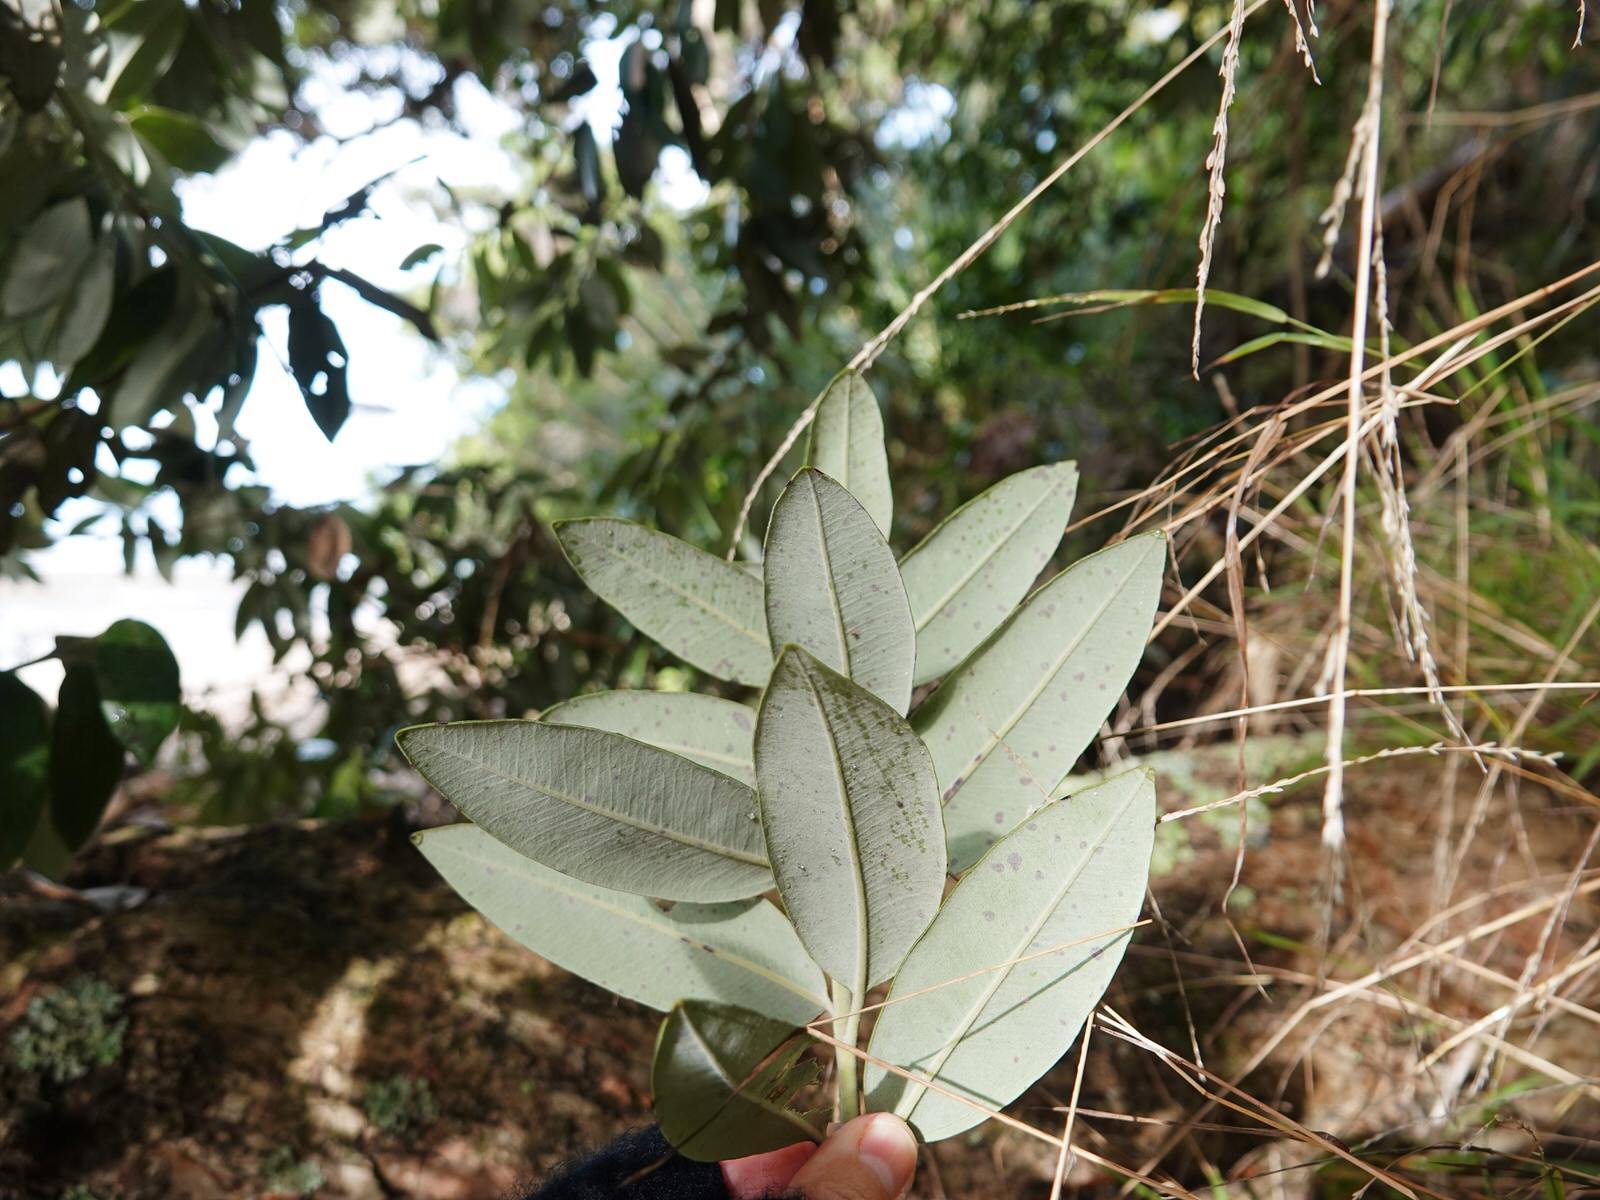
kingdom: Plantae
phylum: Tracheophyta
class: Magnoliopsida
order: Myrtales
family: Myrtaceae
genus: Metrosideros
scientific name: Metrosideros excelsa
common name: New zealand christmastree
